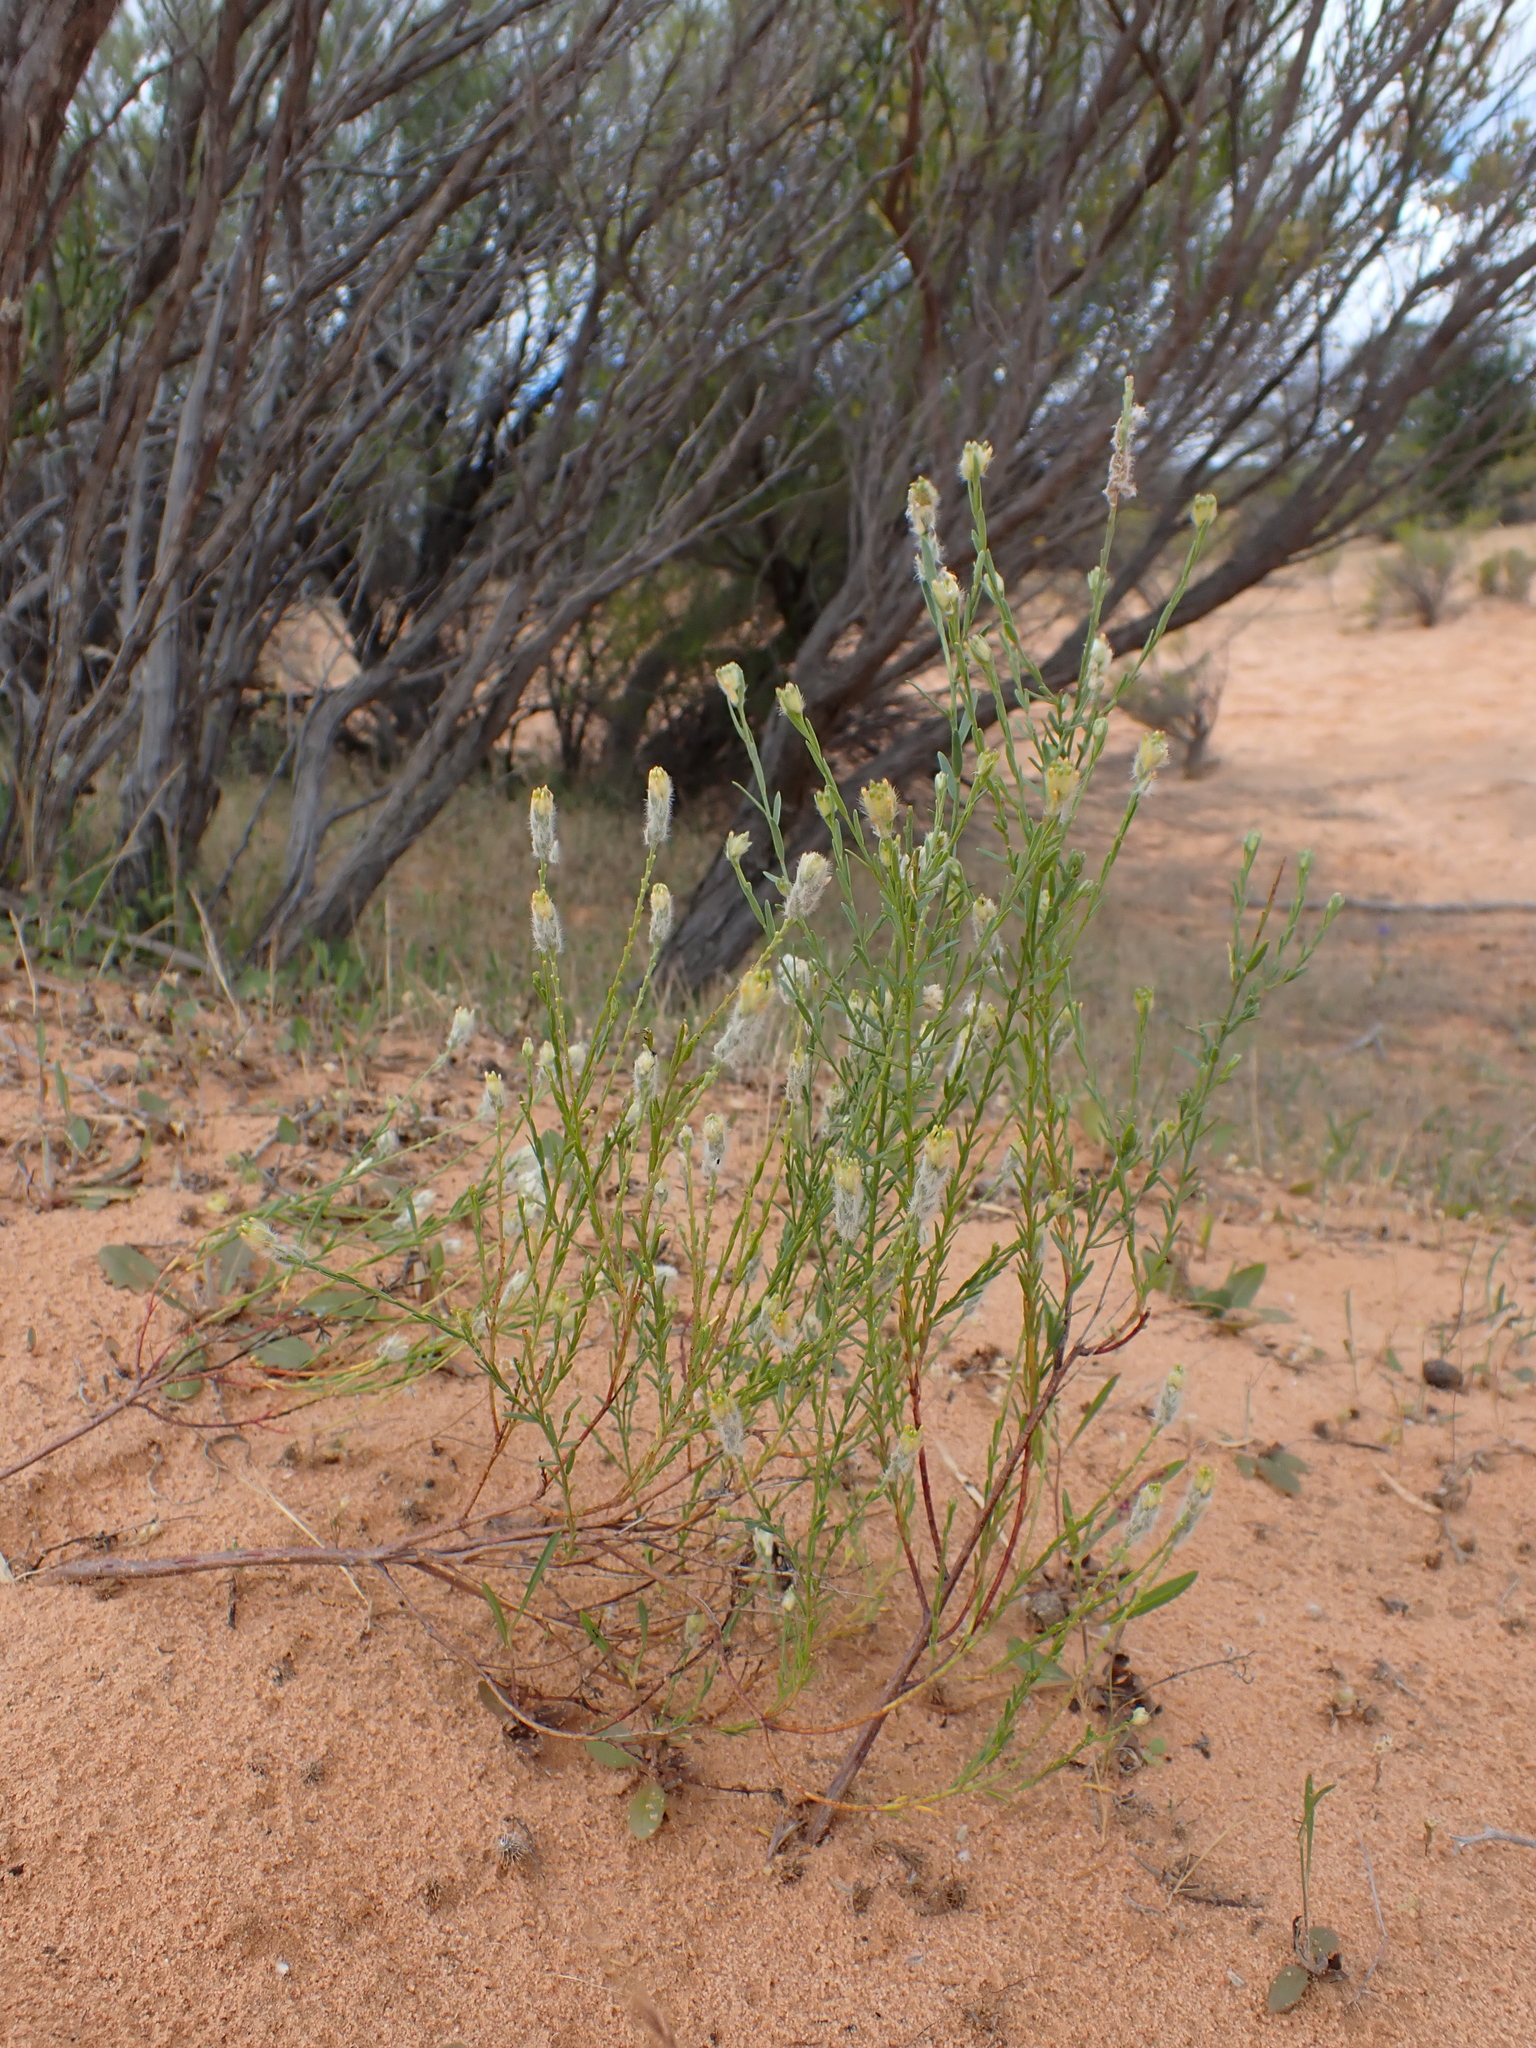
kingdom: Plantae
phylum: Tracheophyta
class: Magnoliopsida
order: Malvales
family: Thymelaeaceae
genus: Pimelea
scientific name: Pimelea trichostachya
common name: Poverty-bush
